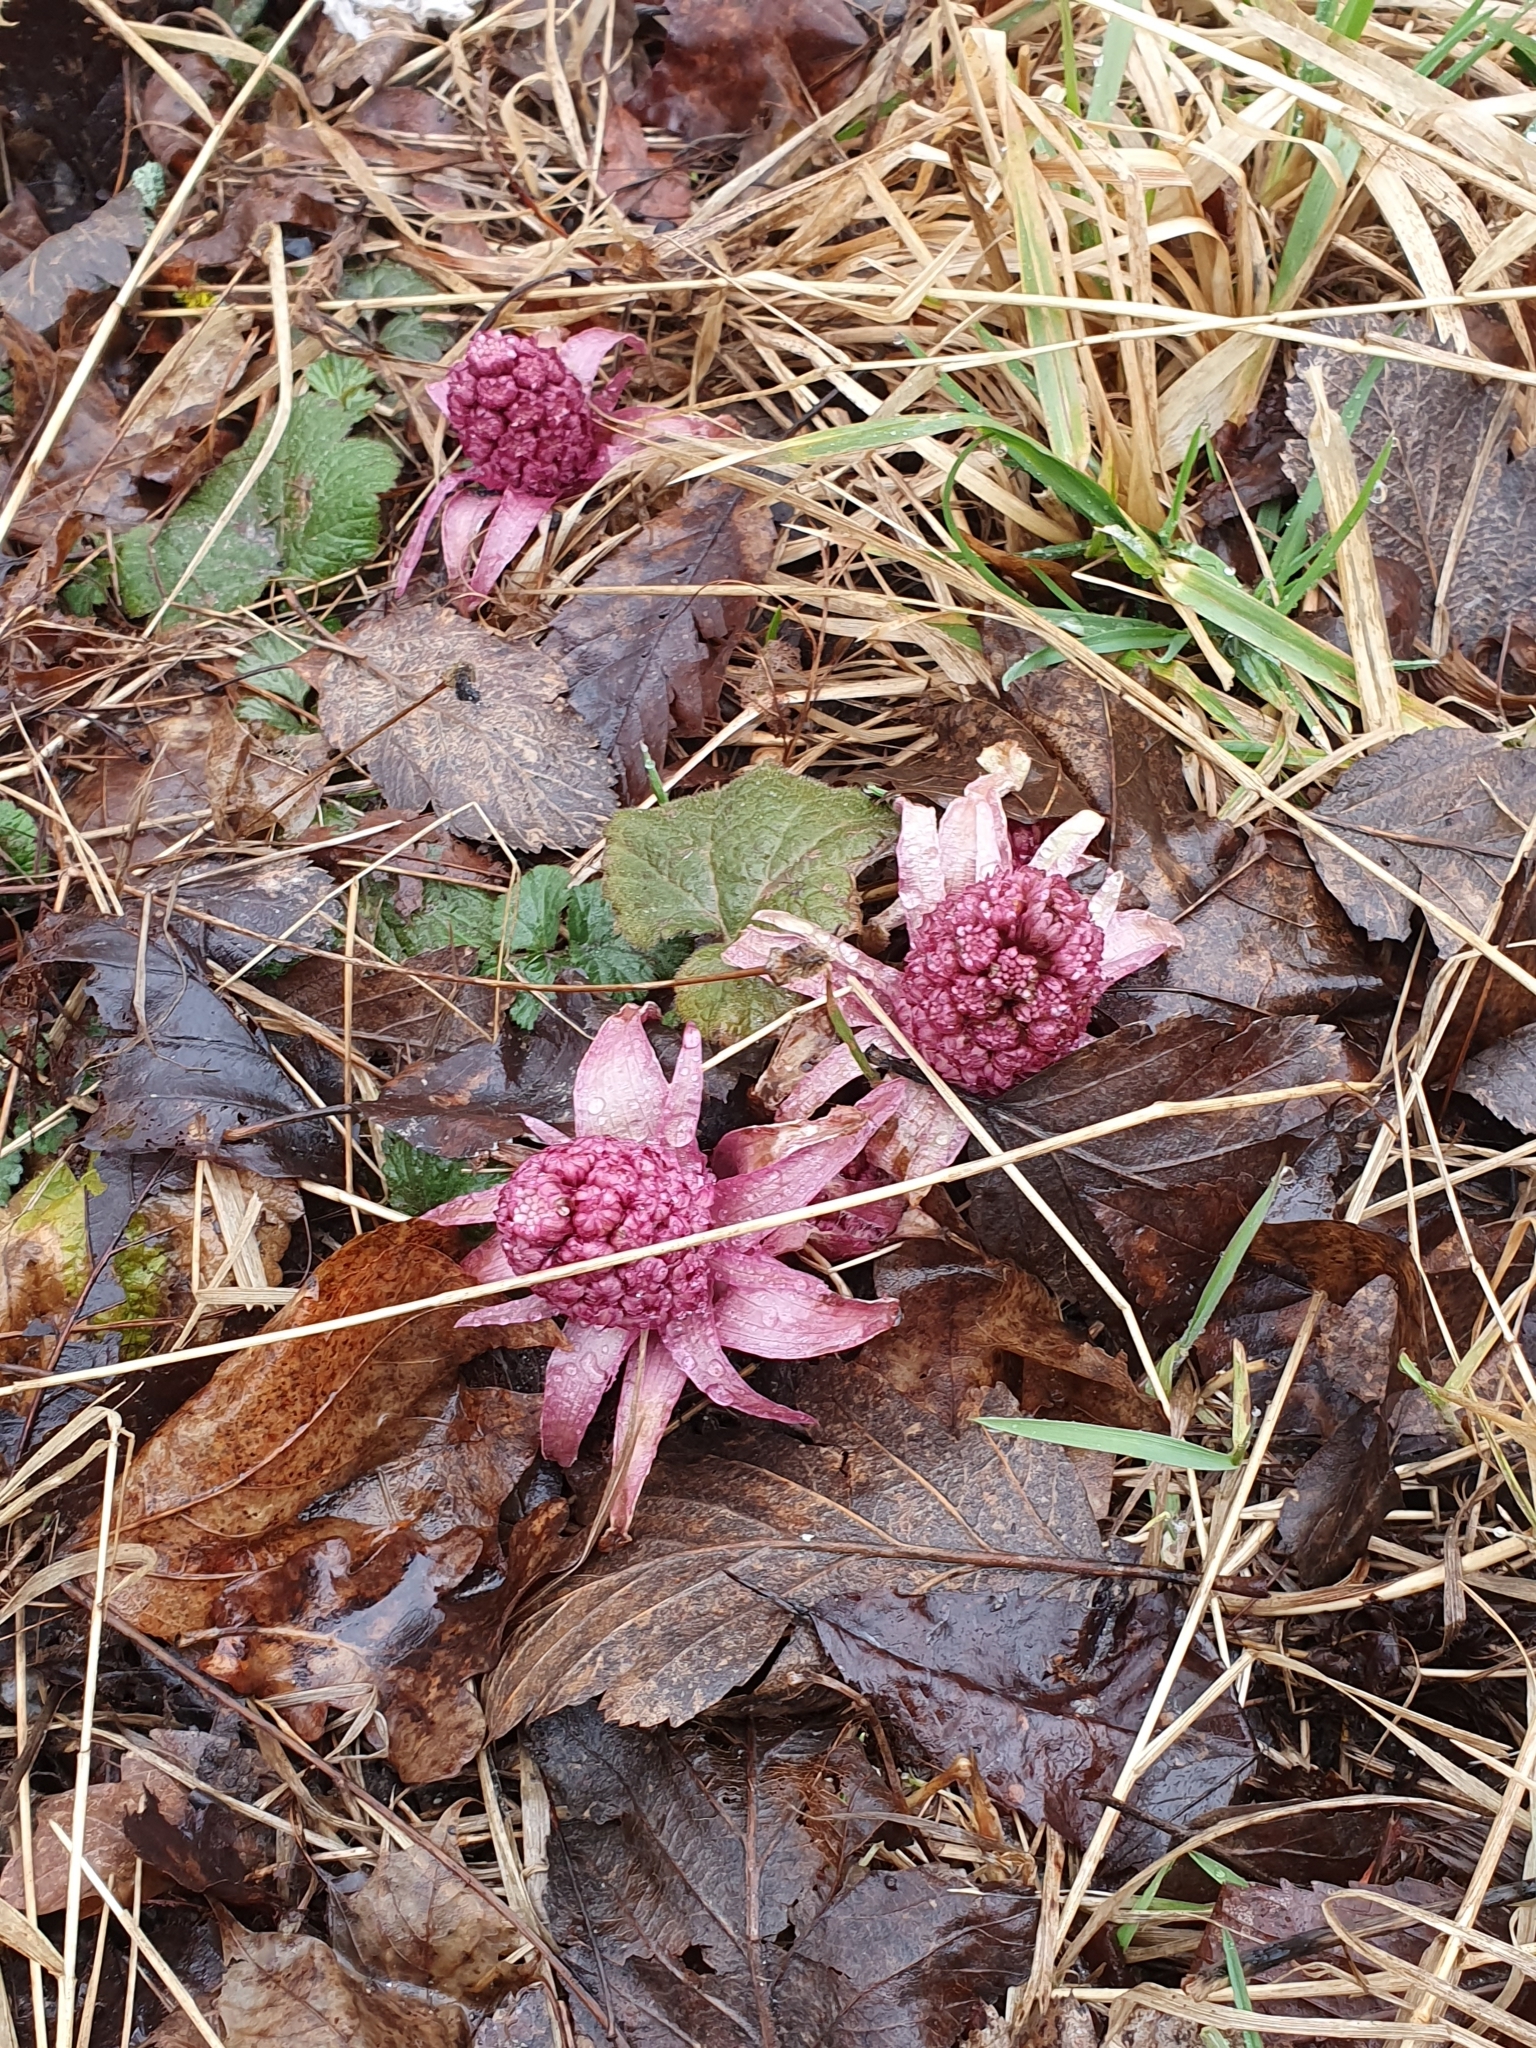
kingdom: Plantae
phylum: Tracheophyta
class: Magnoliopsida
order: Asterales
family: Asteraceae
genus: Petasites
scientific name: Petasites hybridus
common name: Butterbur
